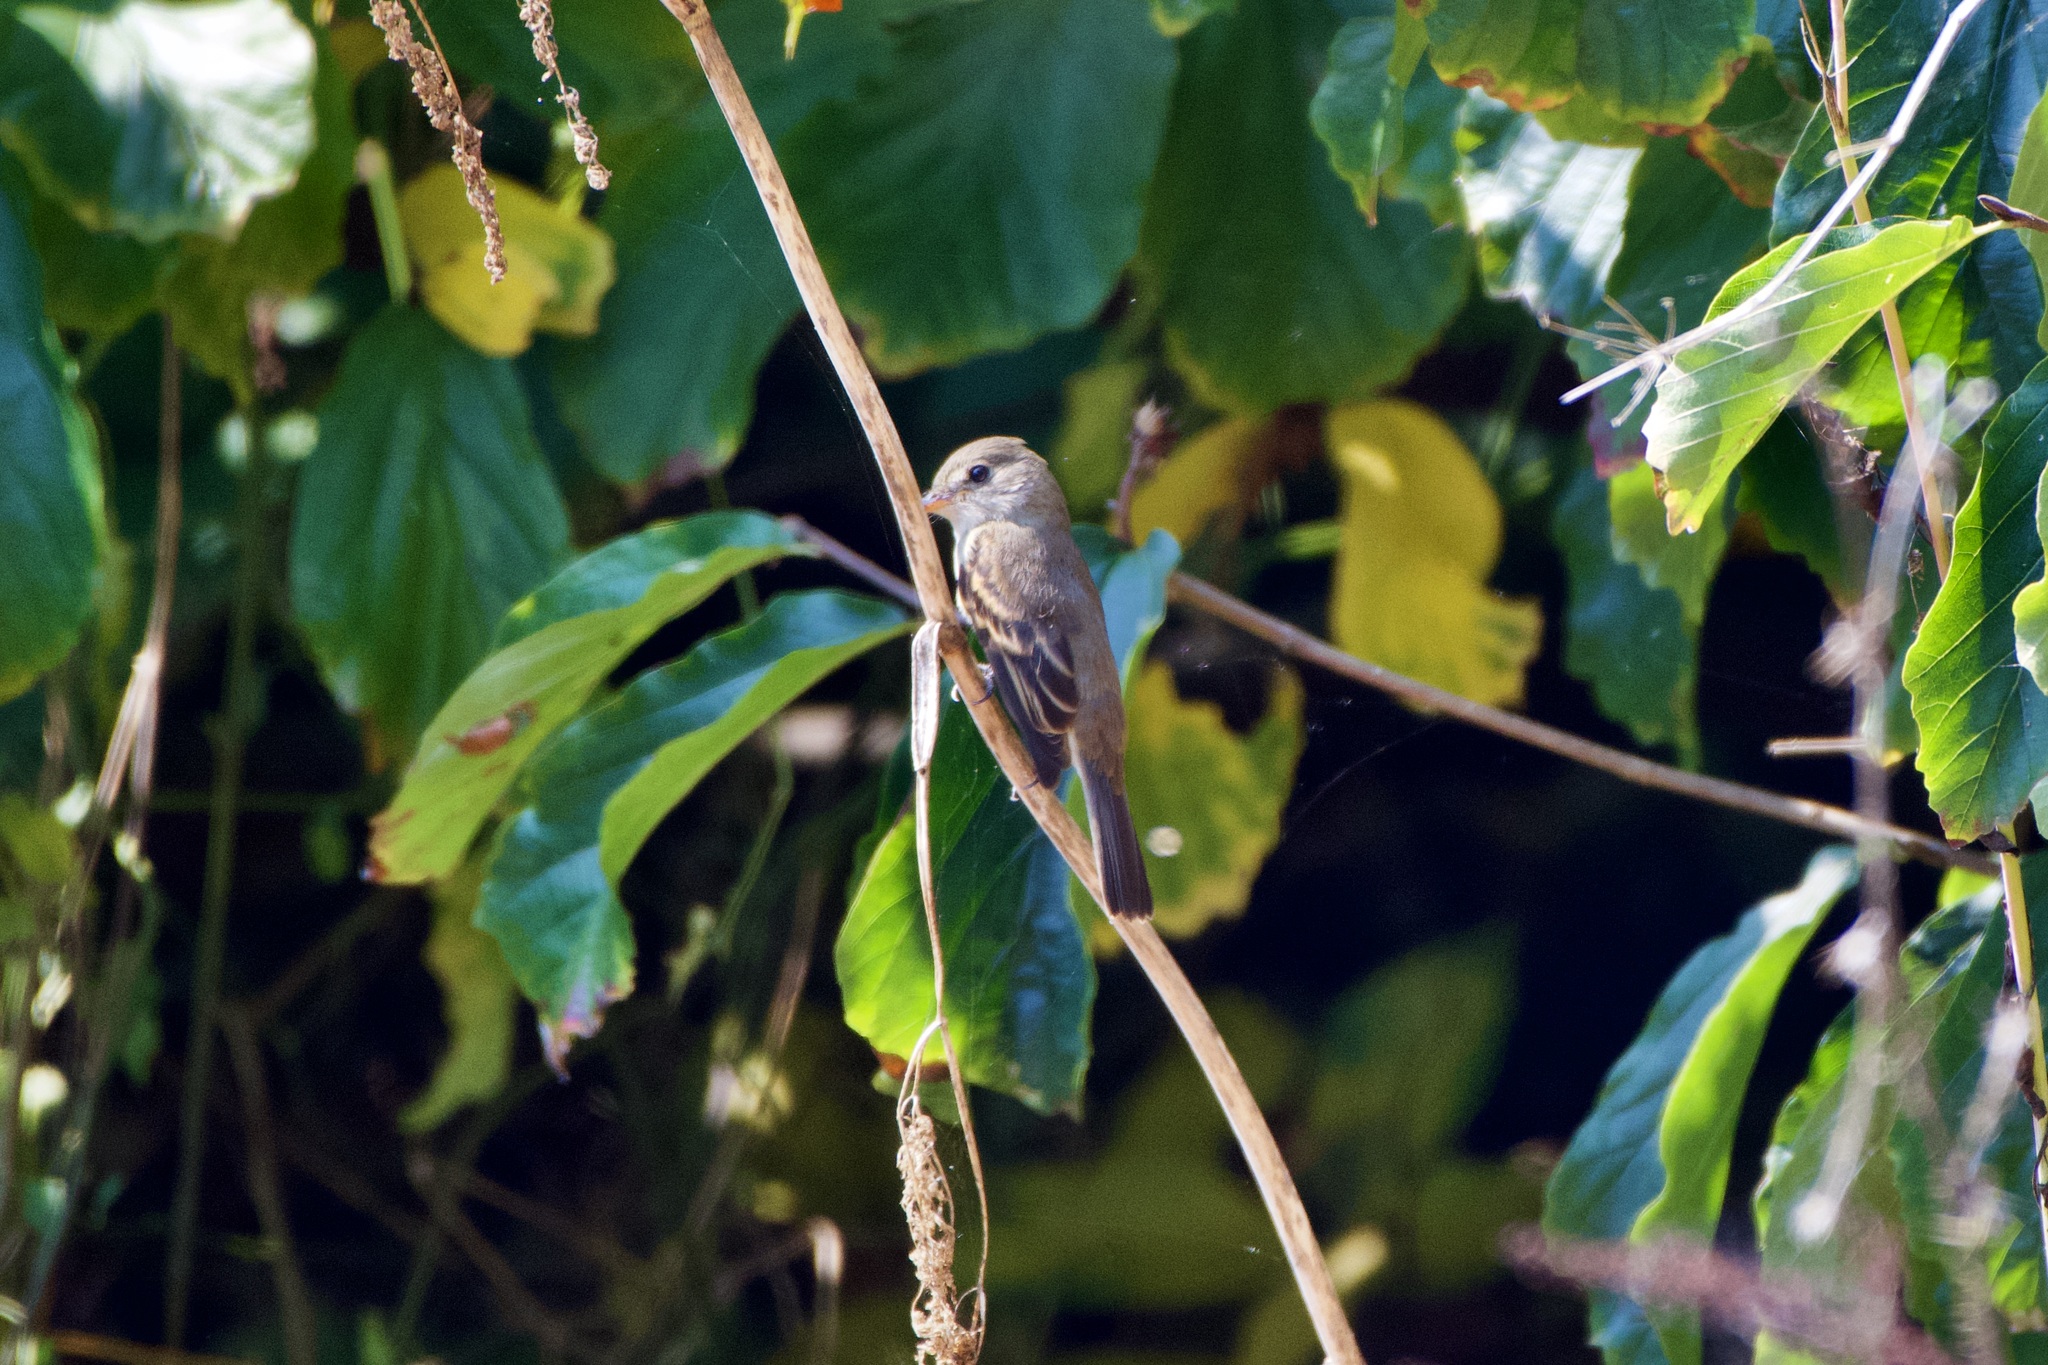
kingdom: Animalia
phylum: Chordata
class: Aves
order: Passeriformes
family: Tyrannidae
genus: Empidonax
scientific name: Empidonax traillii
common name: Willow flycatcher
